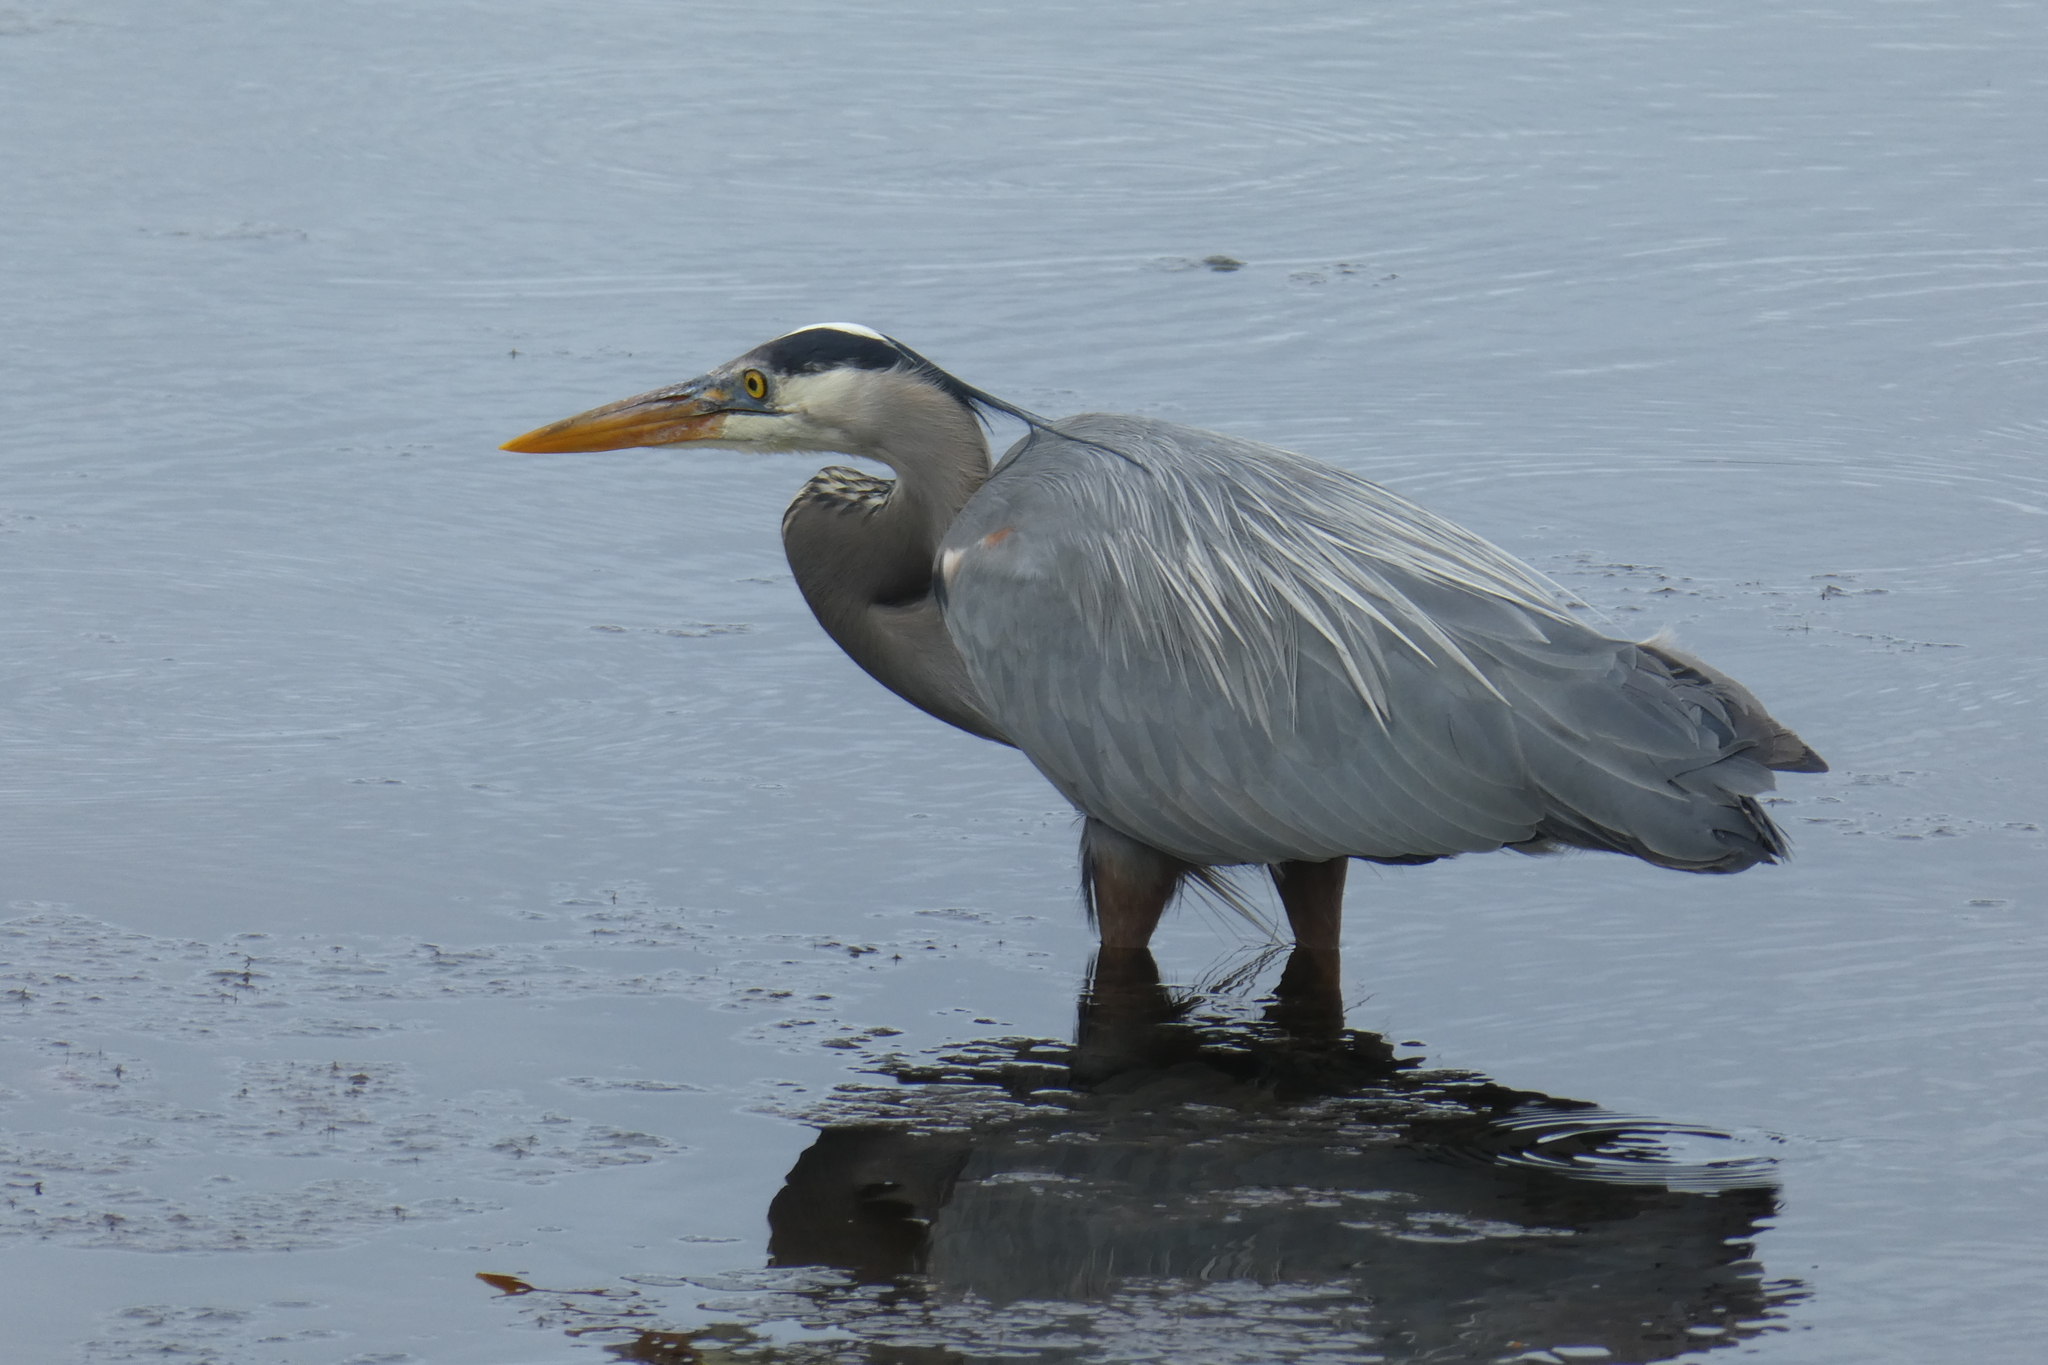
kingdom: Animalia
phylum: Chordata
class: Aves
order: Pelecaniformes
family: Ardeidae
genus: Ardea
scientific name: Ardea herodias
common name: Great blue heron
